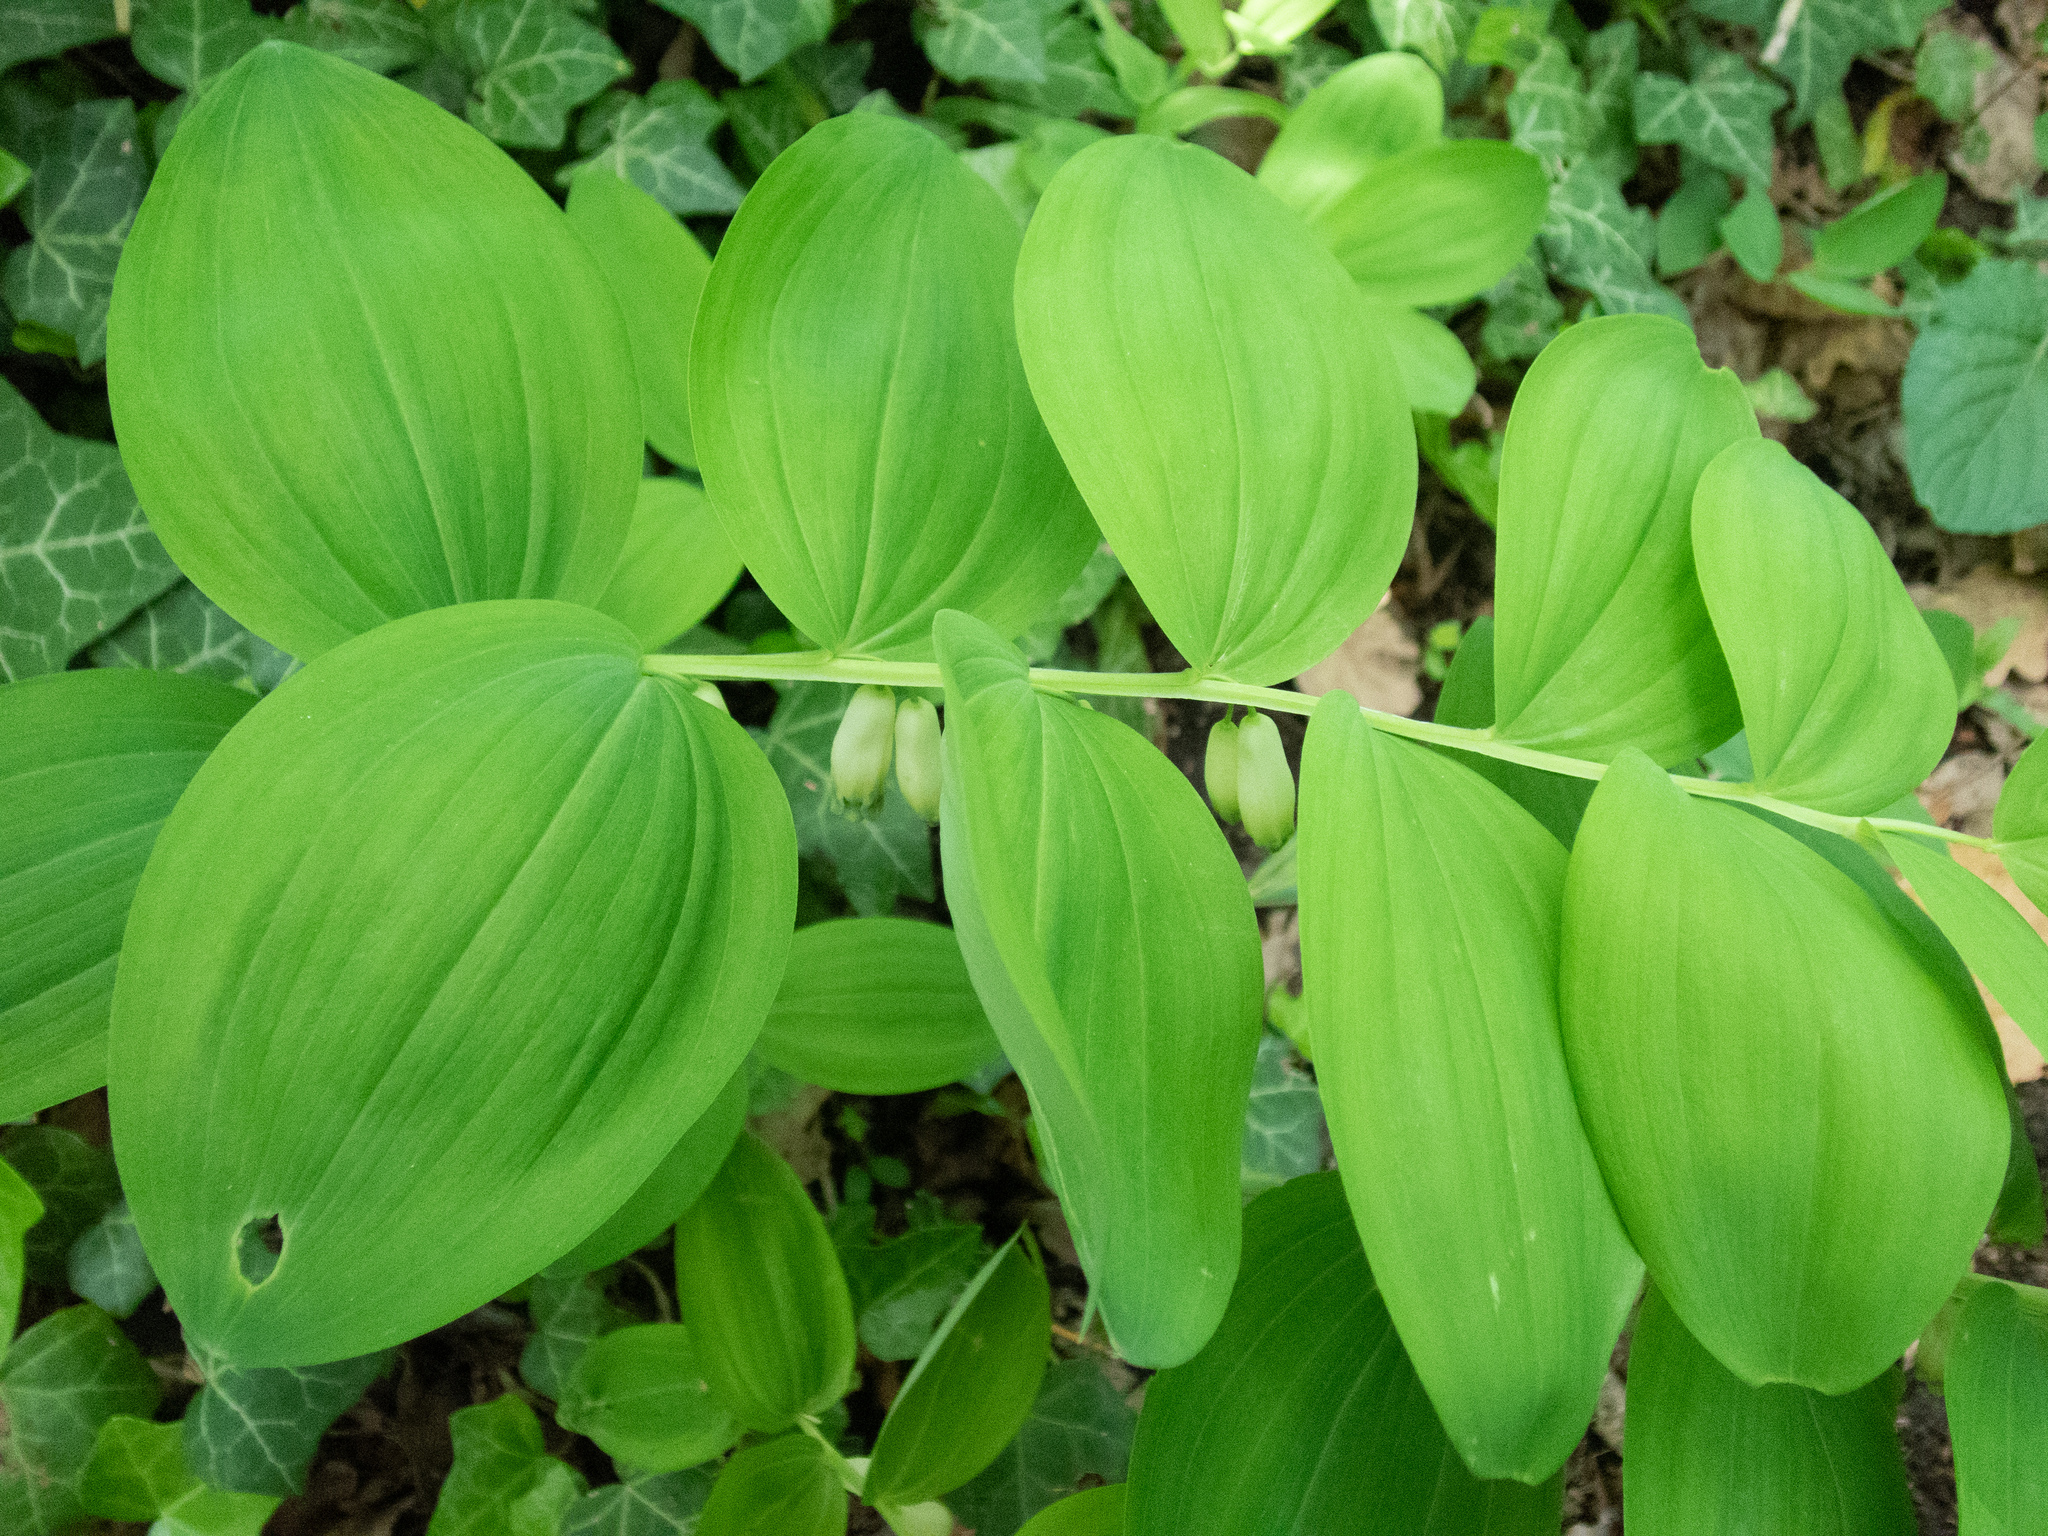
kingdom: Plantae
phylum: Tracheophyta
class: Liliopsida
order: Asparagales
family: Asparagaceae
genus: Polygonatum
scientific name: Polygonatum odoratum
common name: Angular solomon's-seal
